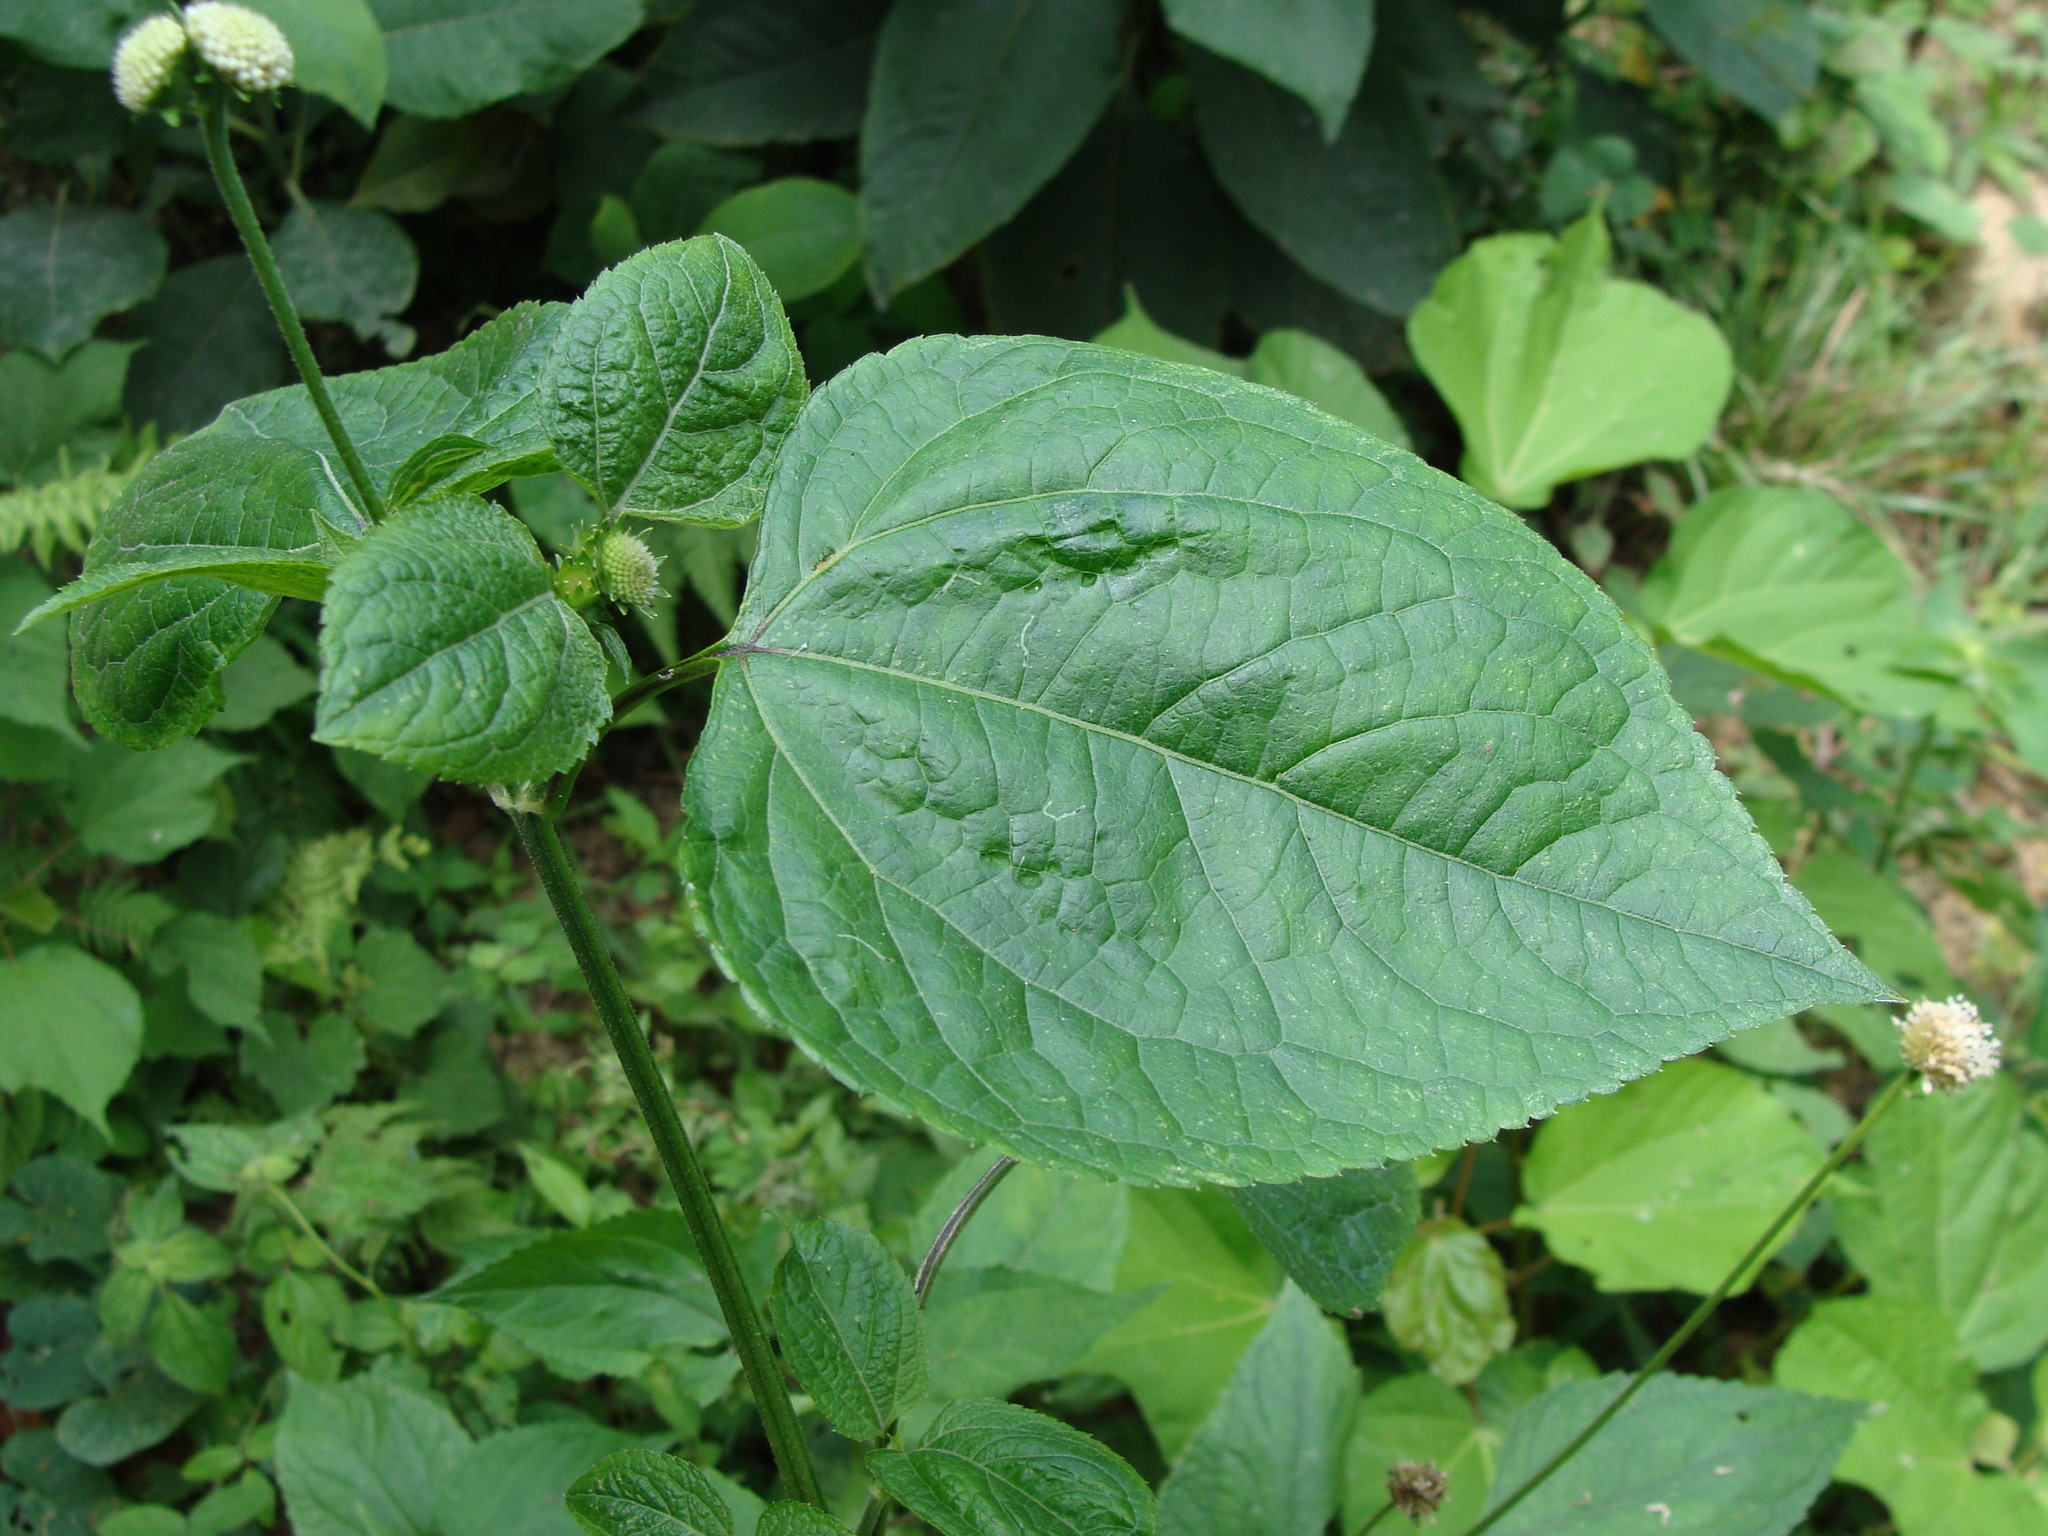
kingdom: Plantae
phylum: Tracheophyta
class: Magnoliopsida
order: Asterales
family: Asteraceae
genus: Melanthera
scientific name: Melanthera nivea
